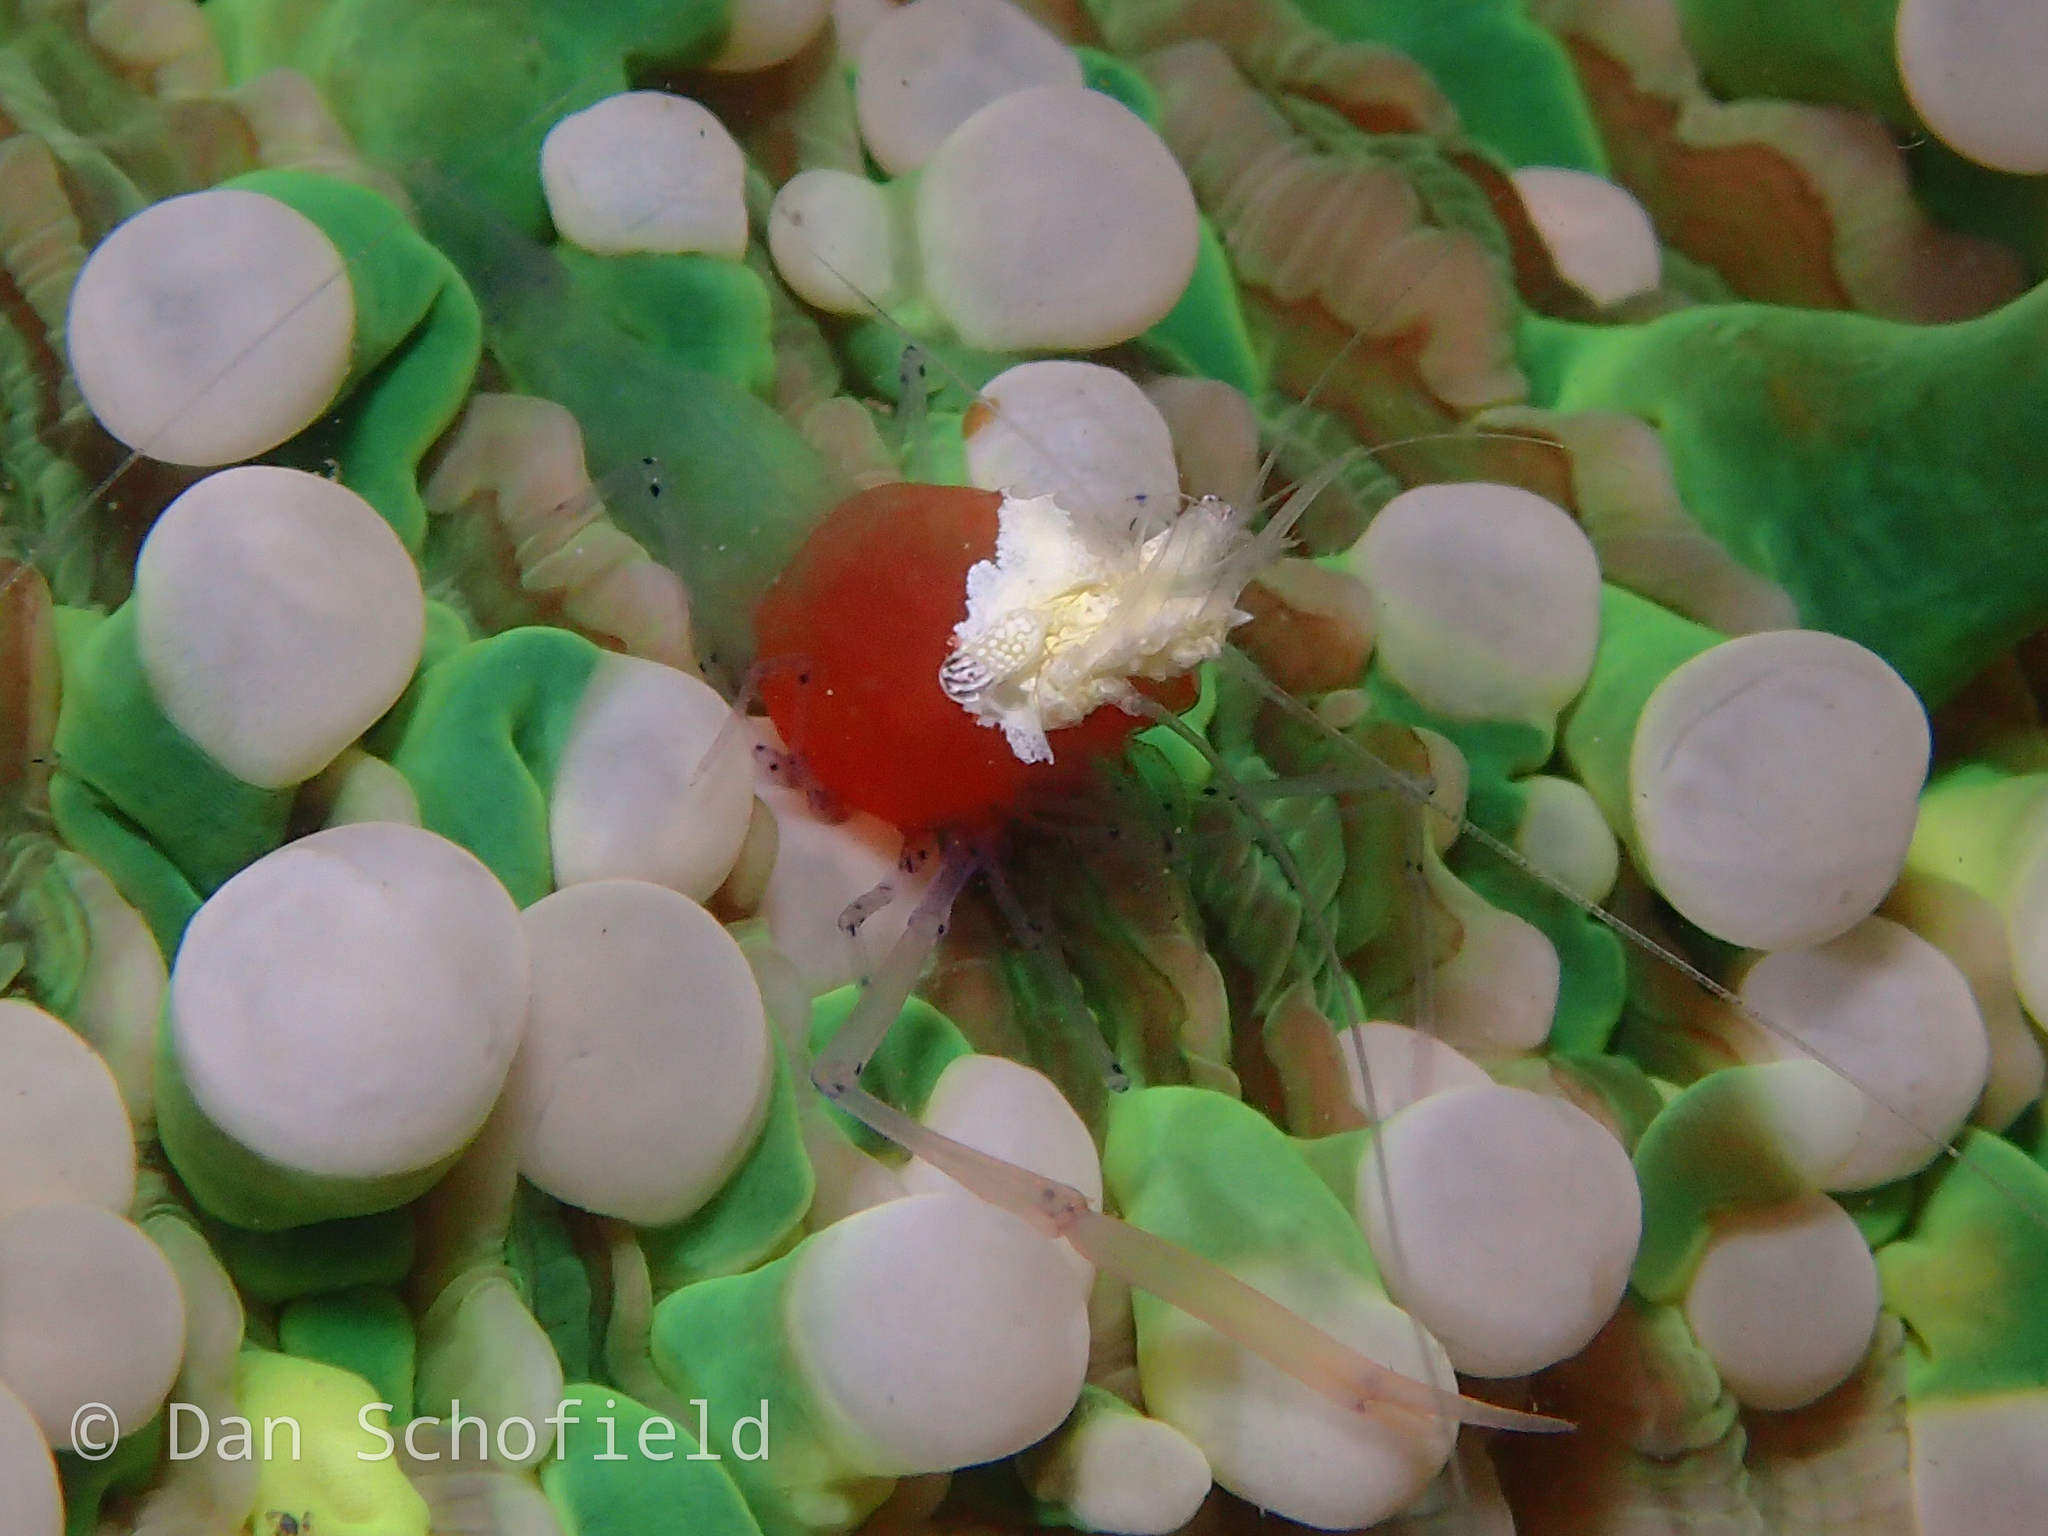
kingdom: Animalia
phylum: Arthropoda
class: Malacostraca
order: Decapoda
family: Palaemonidae
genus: Cuapetes
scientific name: Cuapetes kororensis
